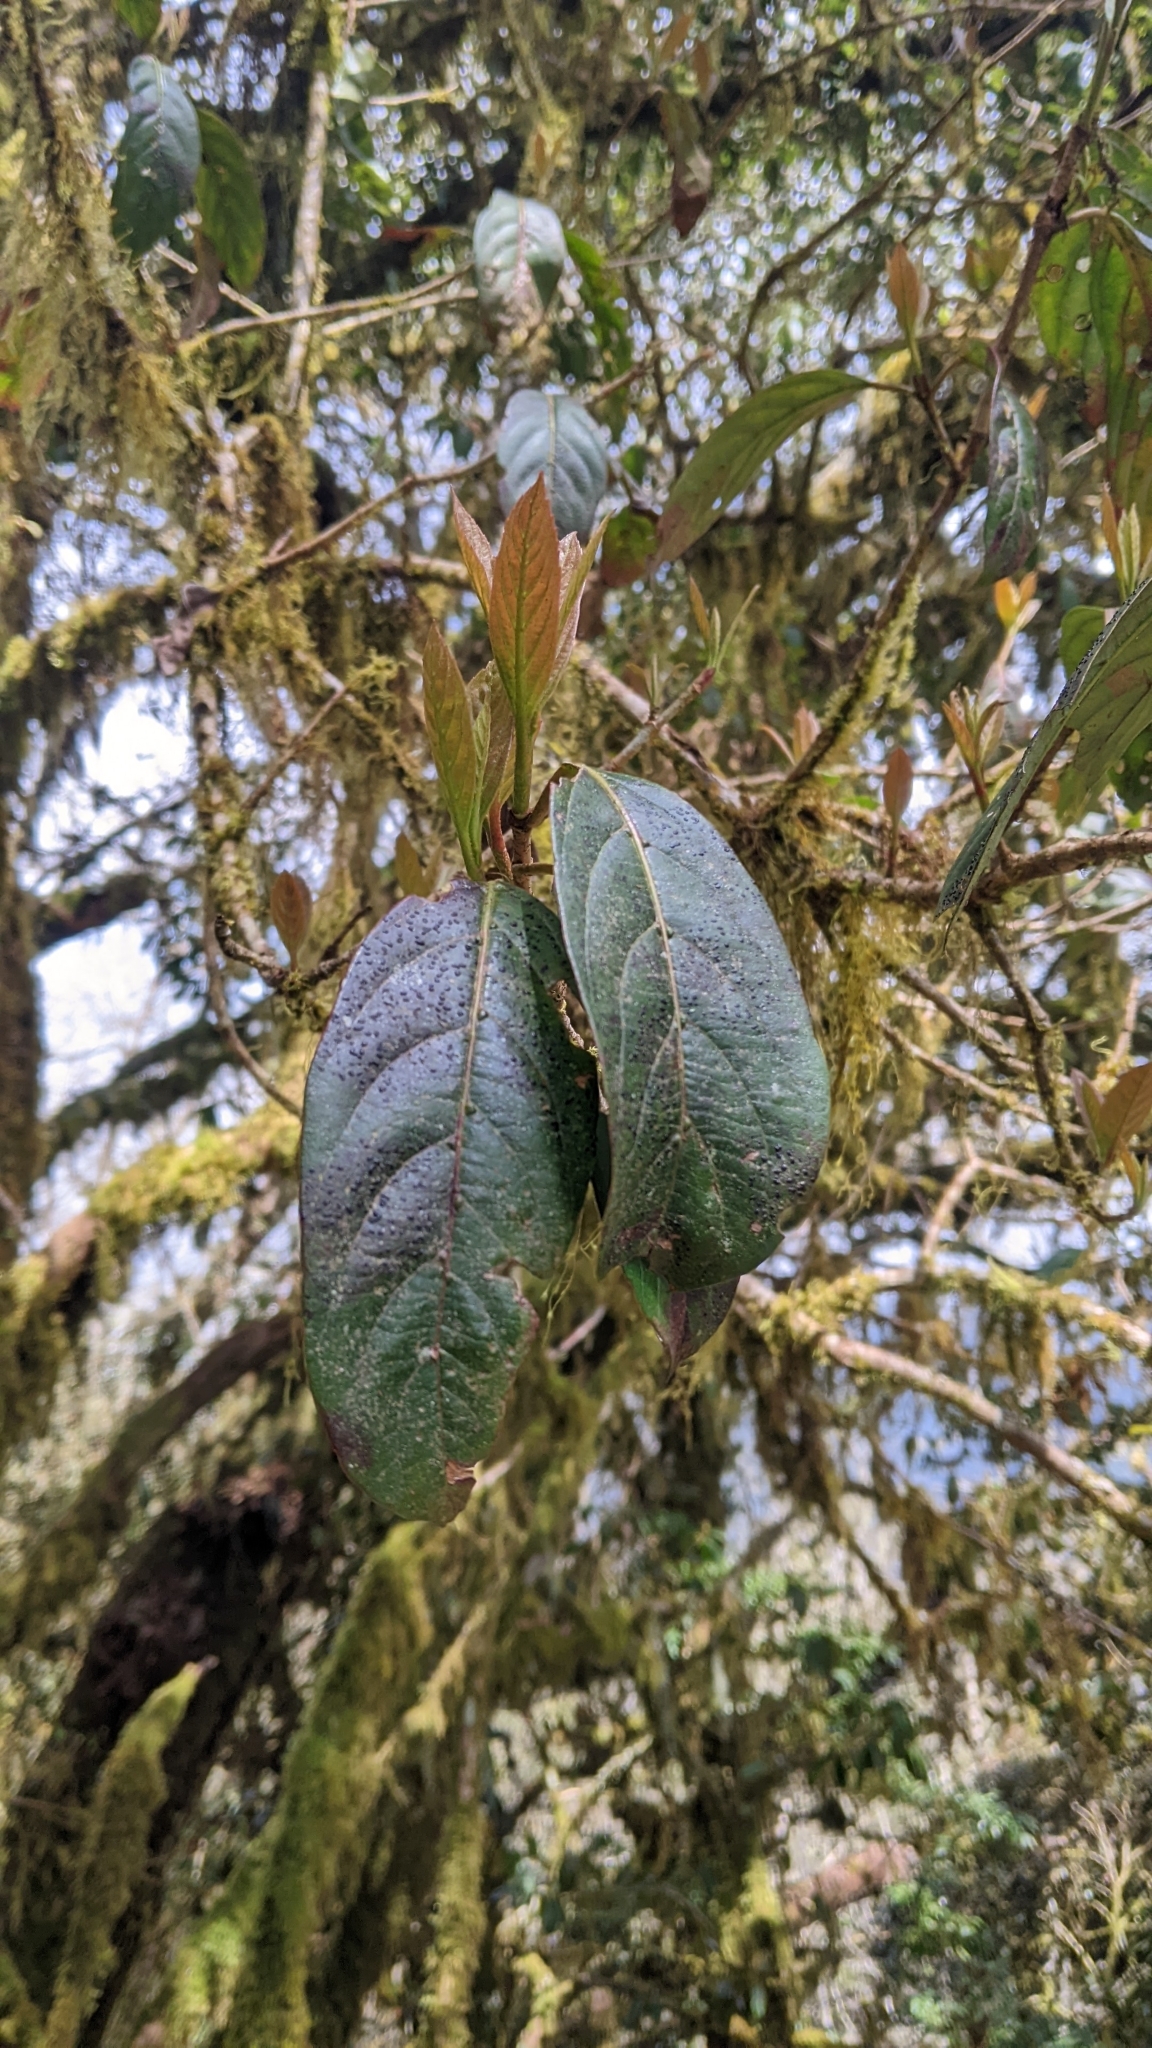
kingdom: Plantae
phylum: Tracheophyta
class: Magnoliopsida
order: Dipsacales
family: Viburnaceae
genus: Viburnum
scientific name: Viburnum odoratissimum
